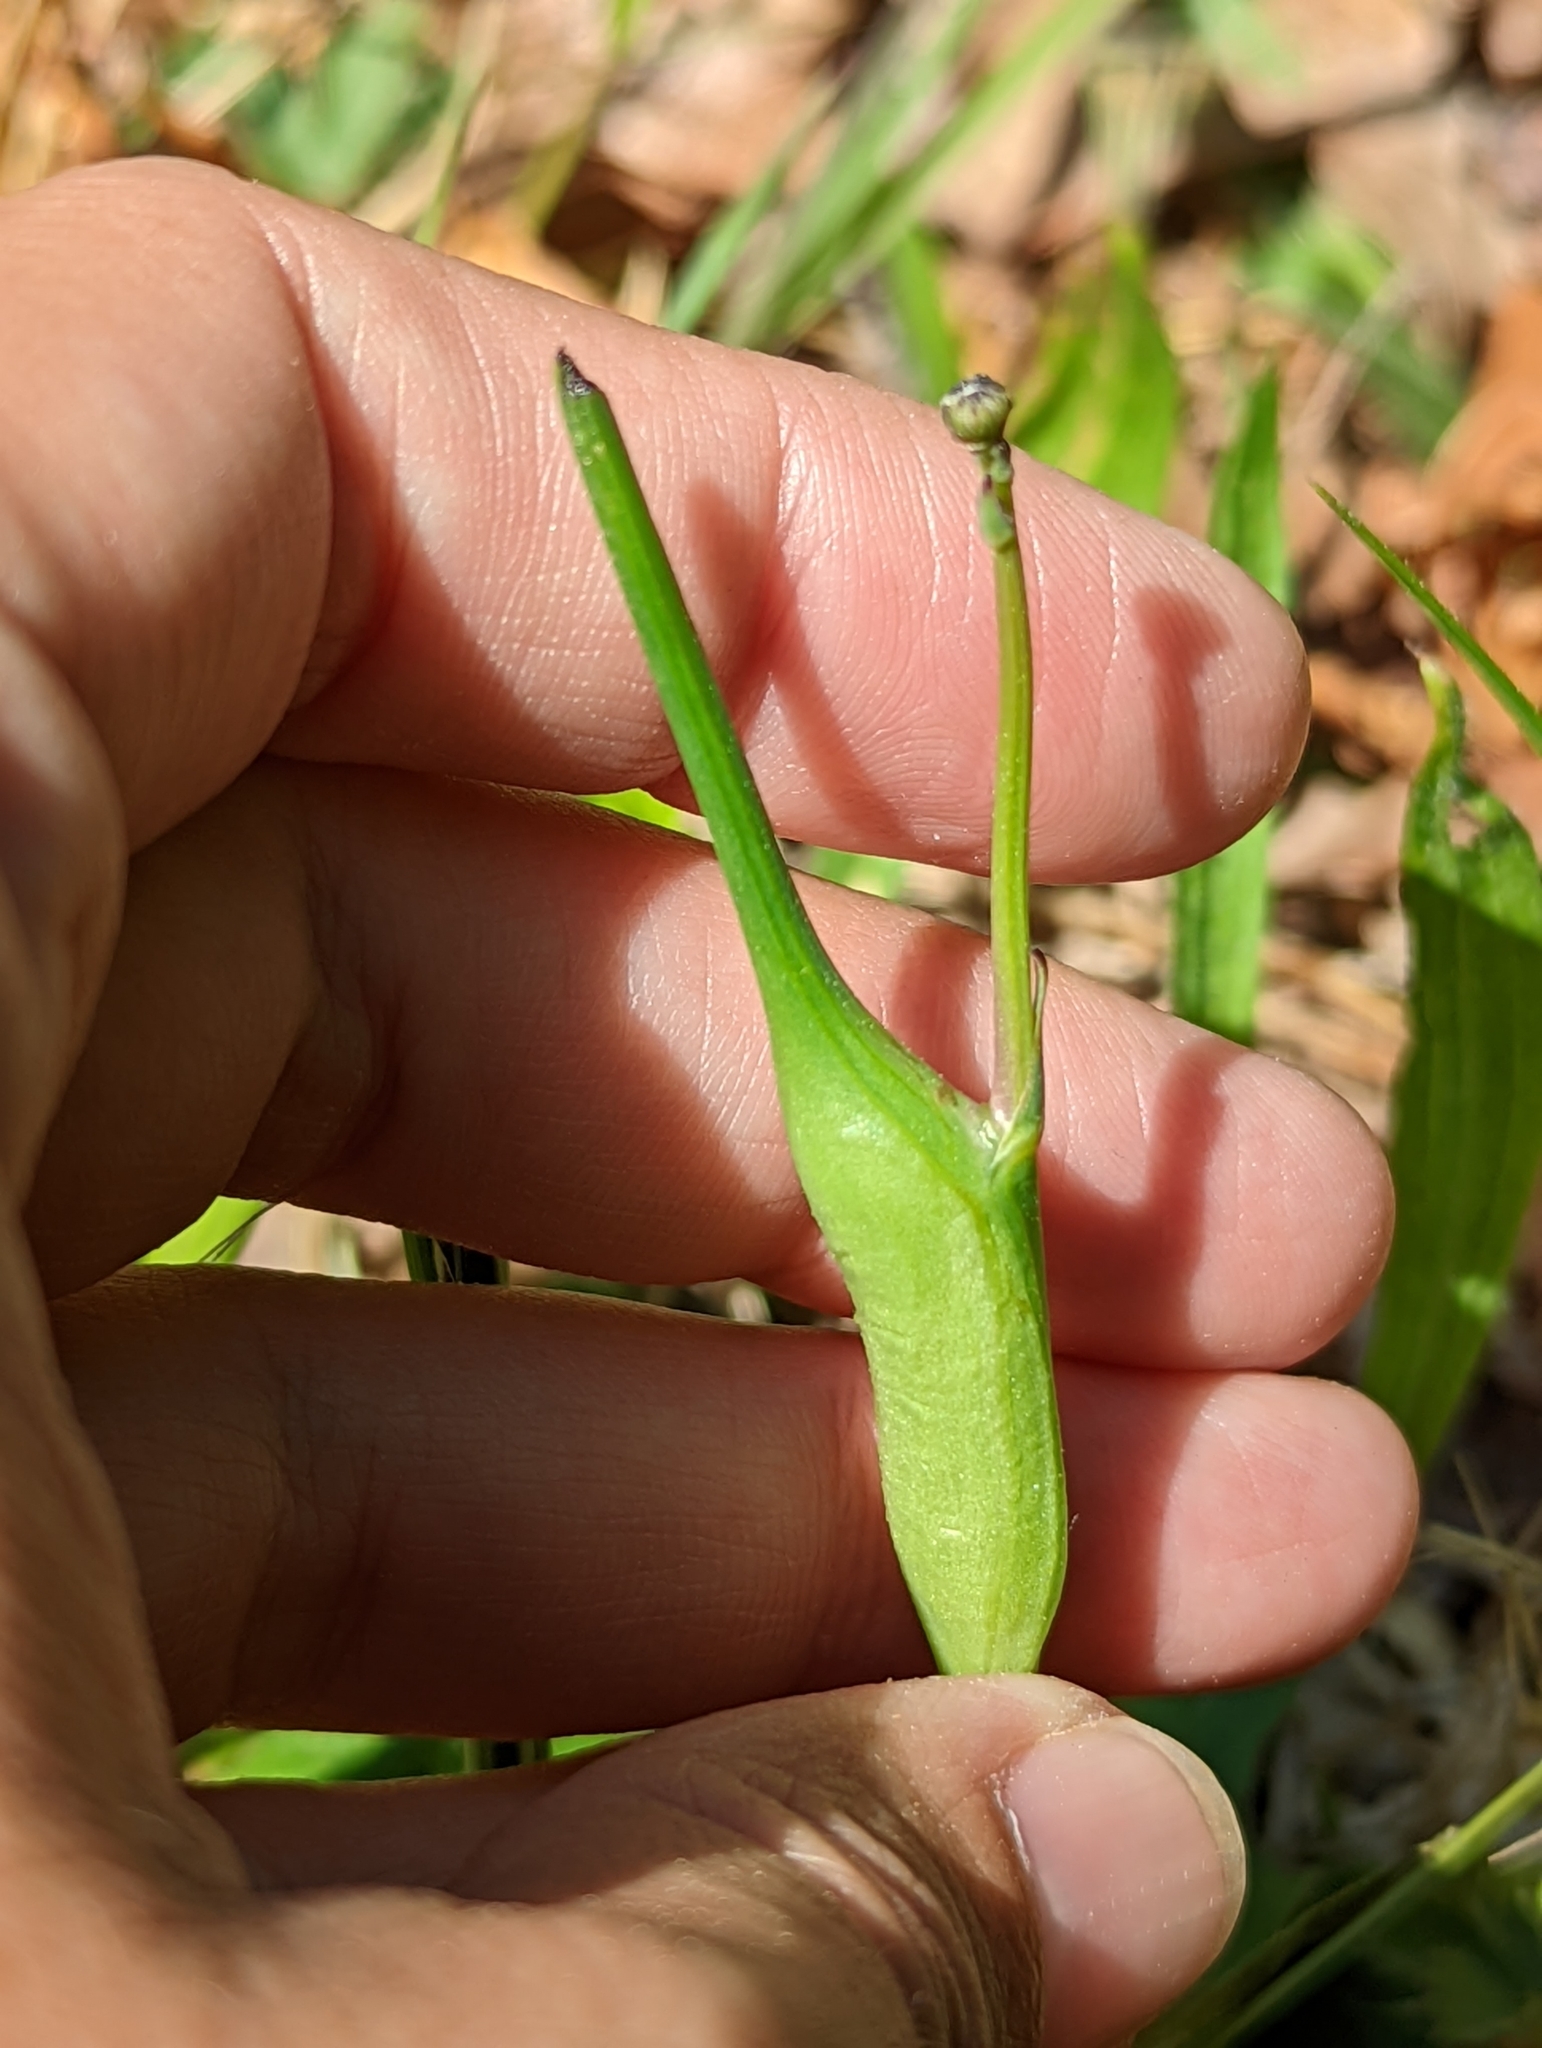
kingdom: Animalia
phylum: Arthropoda
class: Insecta
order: Hymenoptera
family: Cynipidae
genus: Phanacis
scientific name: Phanacis hypochoeridis
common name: Gall wasp
